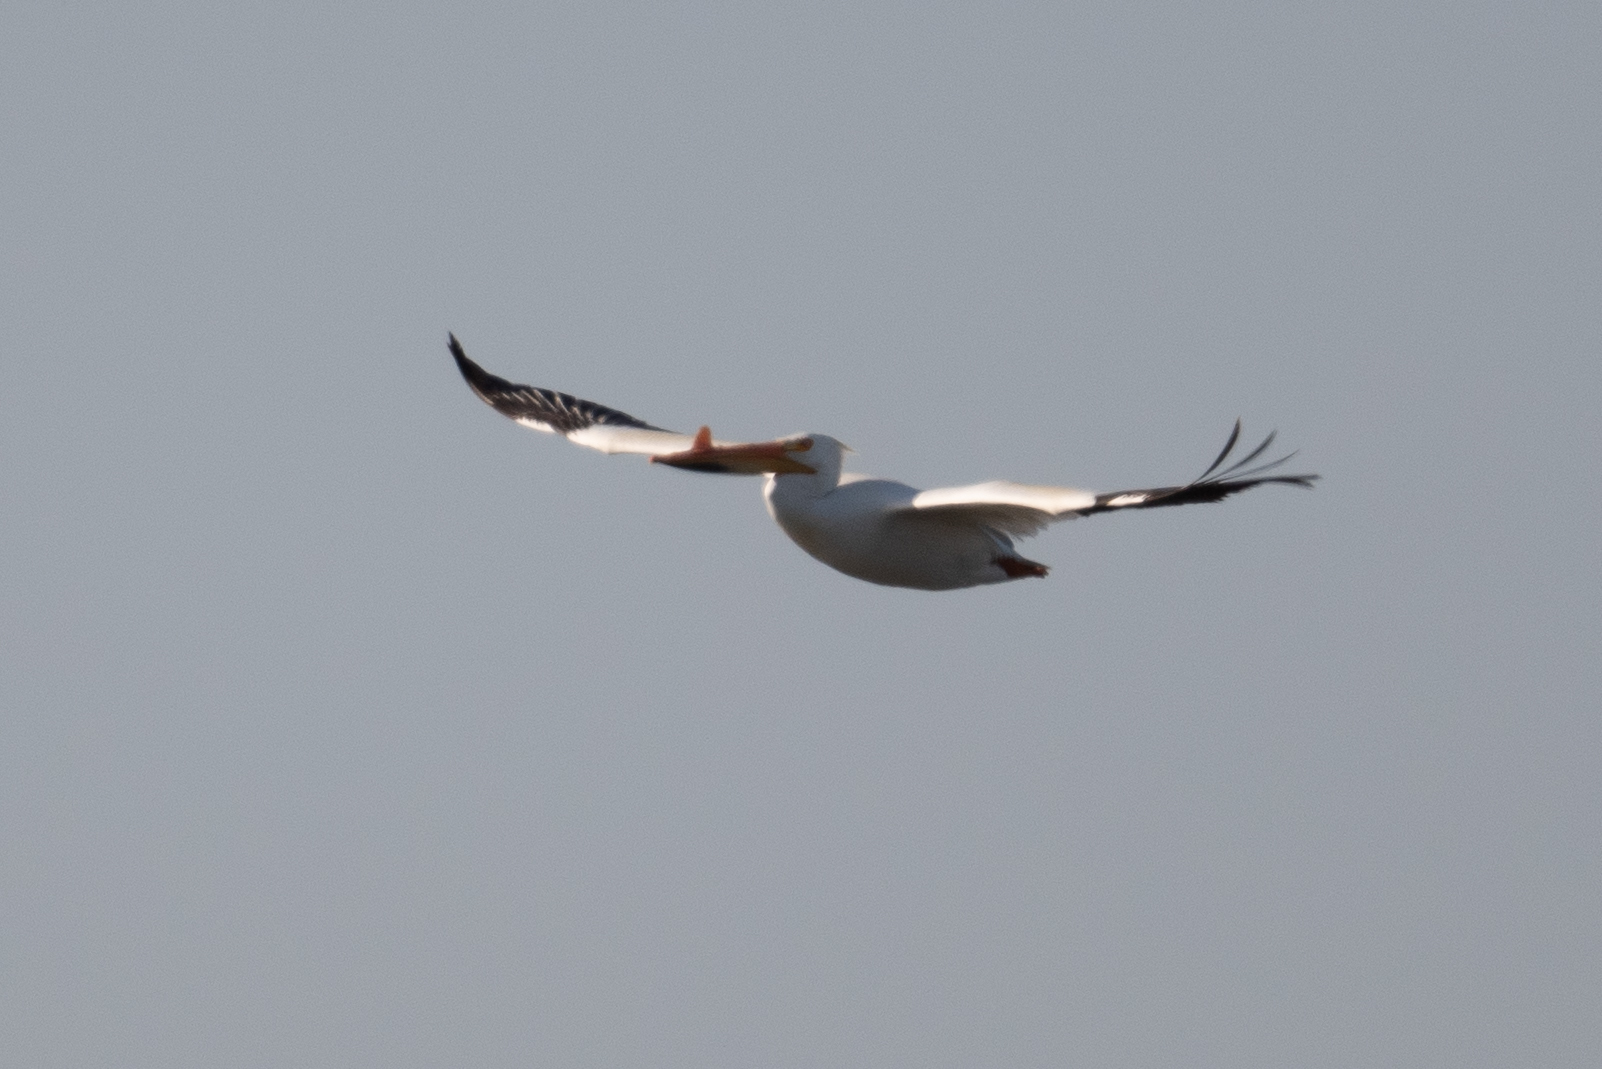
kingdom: Animalia
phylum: Chordata
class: Aves
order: Pelecaniformes
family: Pelecanidae
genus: Pelecanus
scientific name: Pelecanus erythrorhynchos
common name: American white pelican
